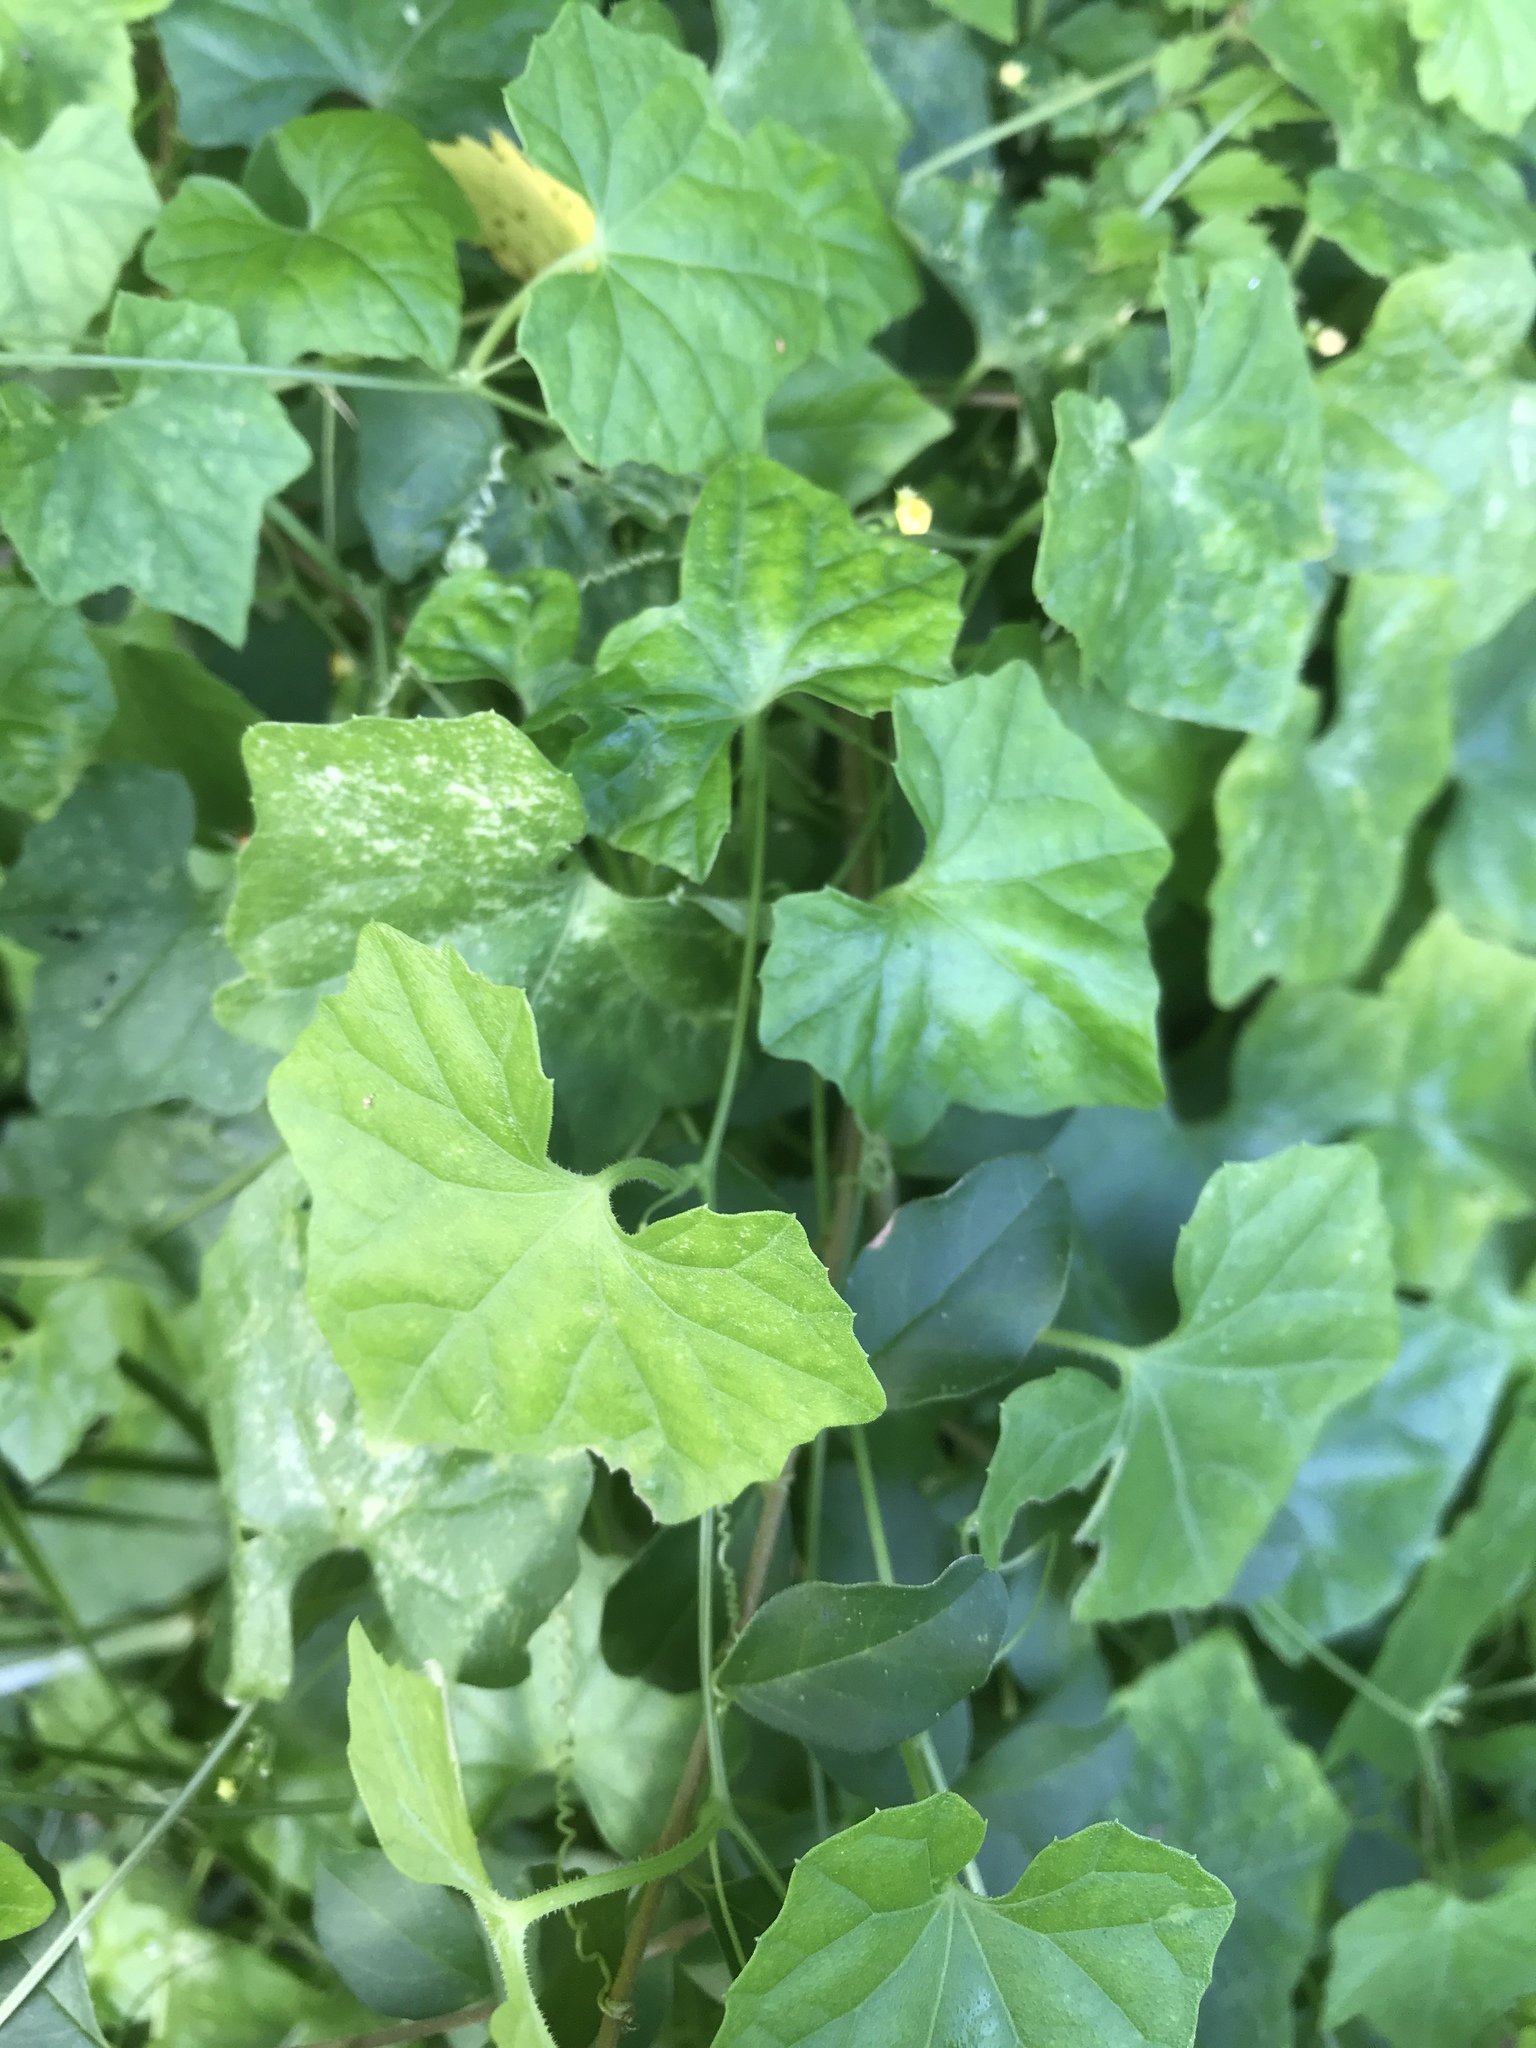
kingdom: Plantae
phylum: Tracheophyta
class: Magnoliopsida
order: Cucurbitales
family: Cucurbitaceae
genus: Melothria
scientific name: Melothria pendula
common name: Creeping-cucumber
